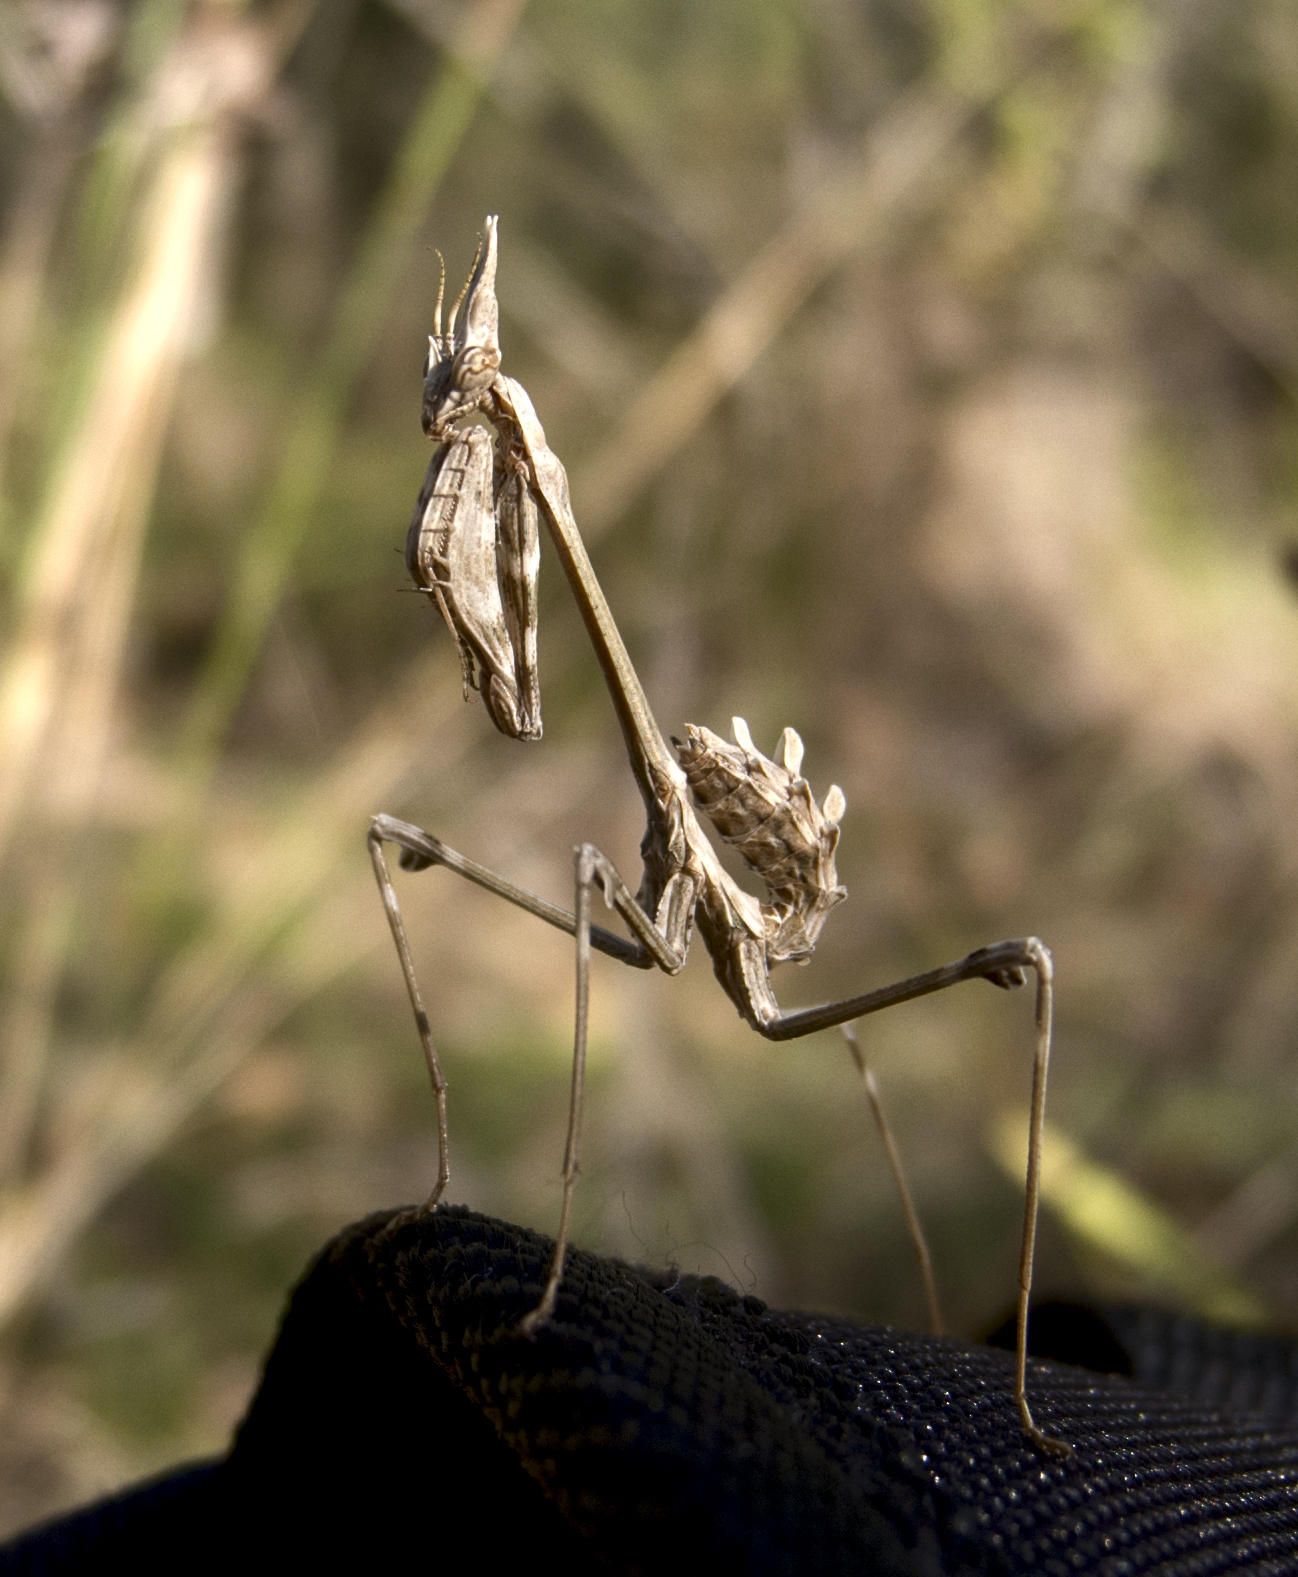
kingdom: Animalia
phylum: Arthropoda
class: Insecta
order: Mantodea
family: Empusidae
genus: Empusa
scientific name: Empusa fasciata
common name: Devil's mare
